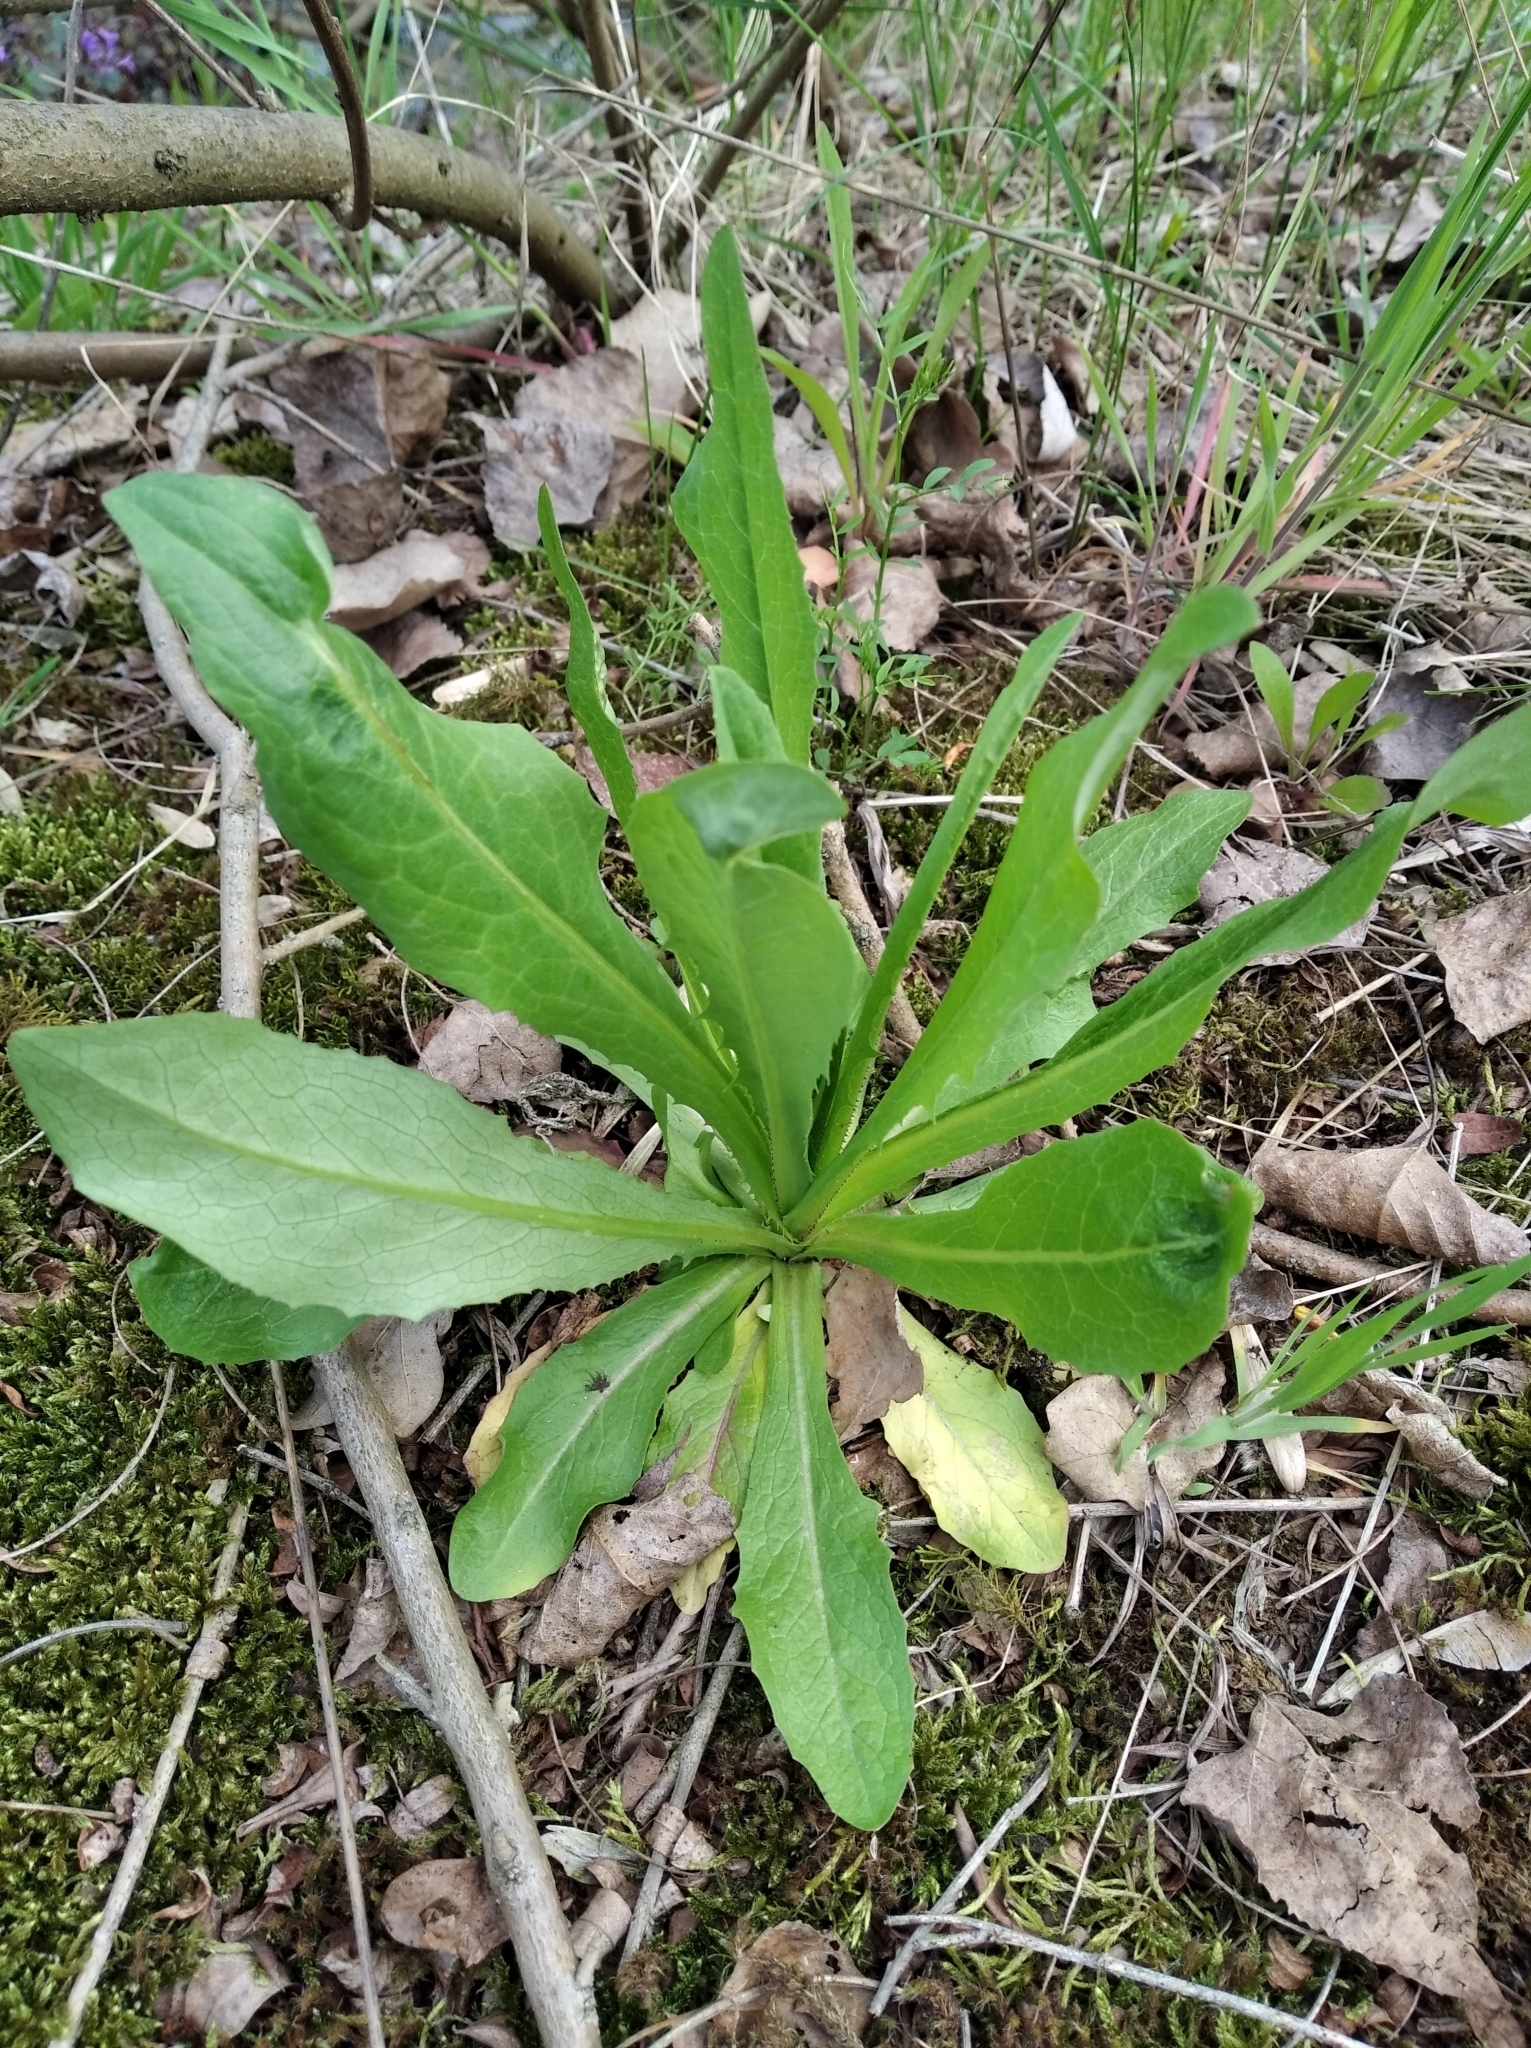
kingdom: Plantae
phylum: Tracheophyta
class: Magnoliopsida
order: Asterales
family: Asteraceae
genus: Hypochaeris
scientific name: Hypochaeris radicata
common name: Flatweed
